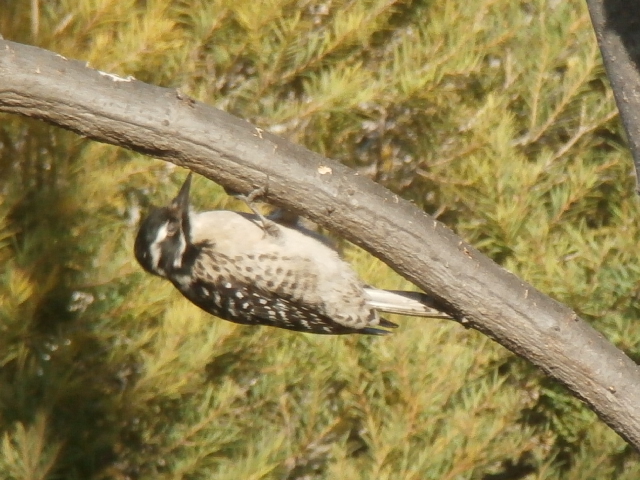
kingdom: Animalia
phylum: Chordata
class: Aves
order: Piciformes
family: Picidae
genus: Dryobates
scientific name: Dryobates nuttallii
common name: Nuttall's woodpecker
